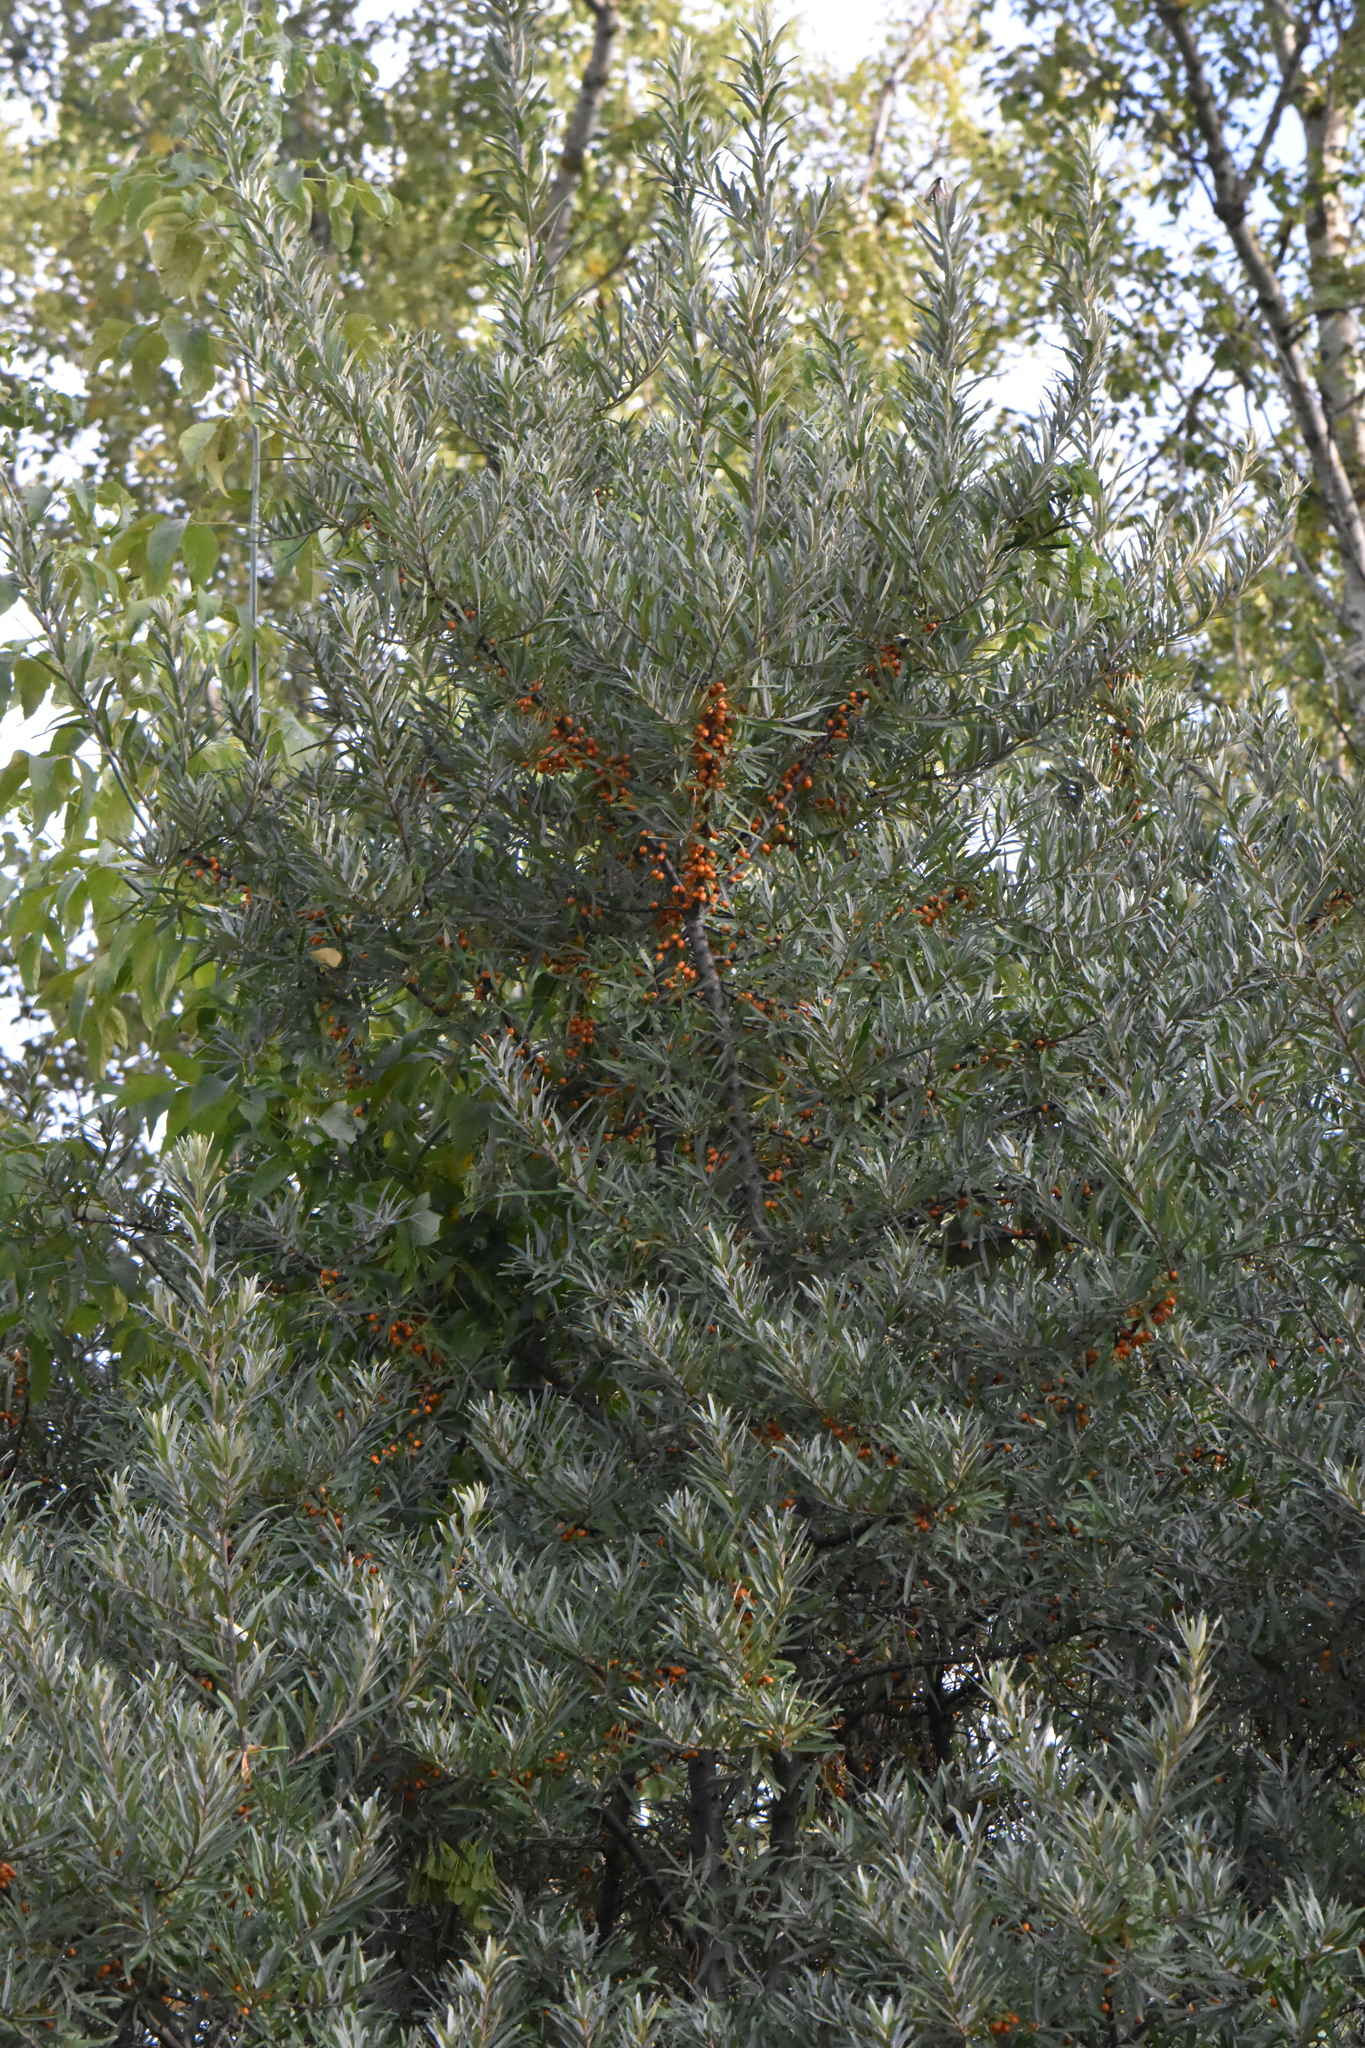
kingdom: Plantae
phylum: Tracheophyta
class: Magnoliopsida
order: Rosales
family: Elaeagnaceae
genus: Hippophae
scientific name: Hippophae rhamnoides
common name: Sea-buckthorn
